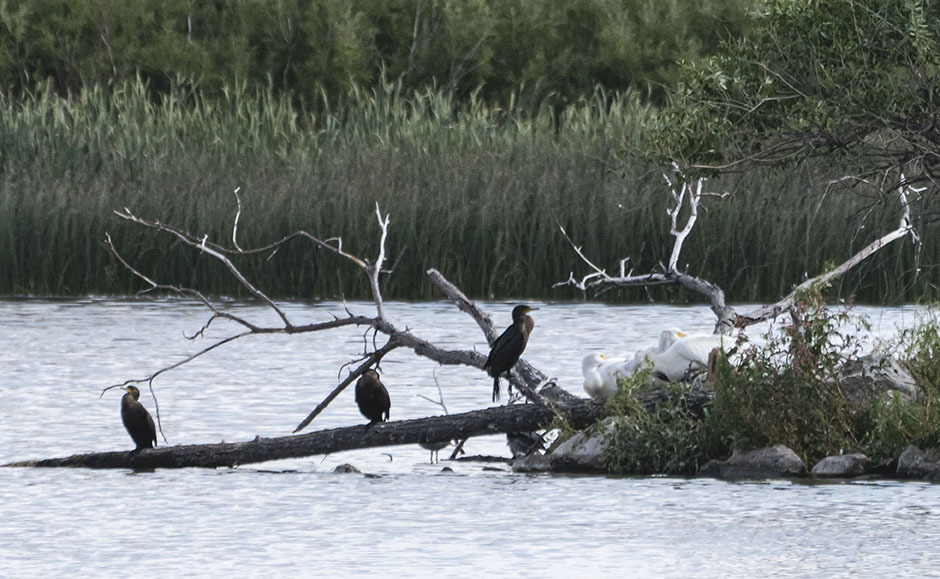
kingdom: Animalia
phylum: Chordata
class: Aves
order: Suliformes
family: Phalacrocoracidae
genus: Phalacrocorax
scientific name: Phalacrocorax auritus
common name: Double-crested cormorant
